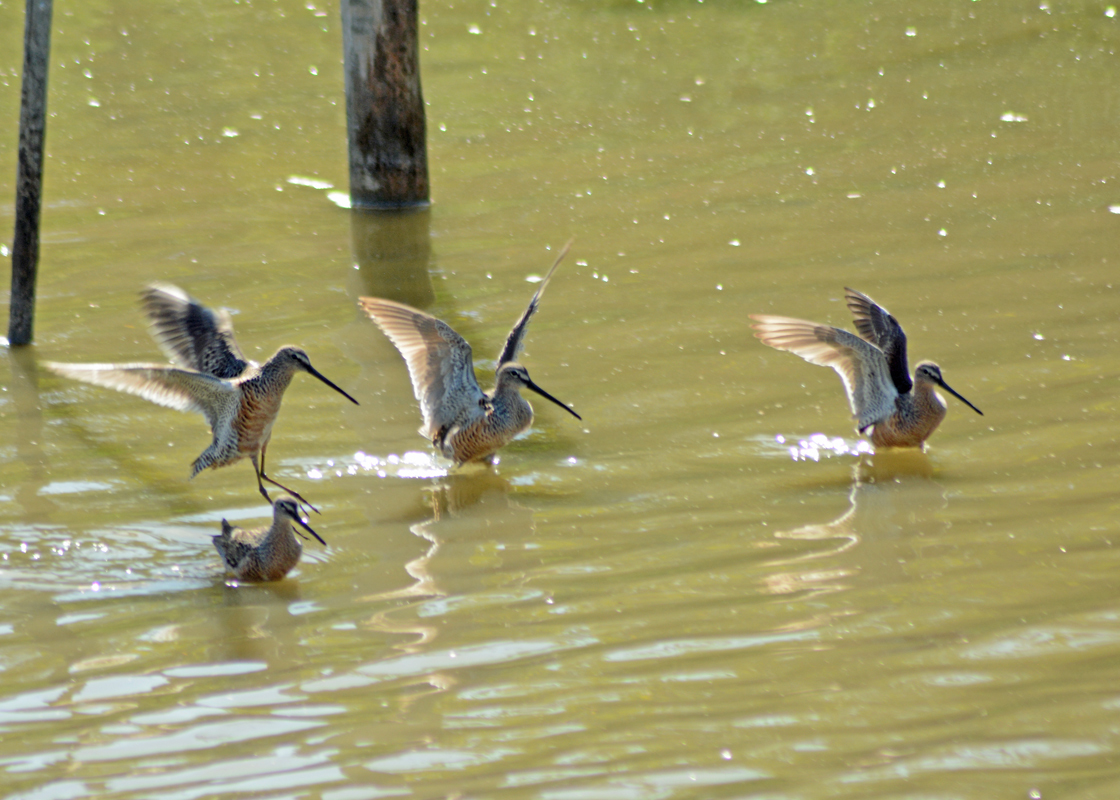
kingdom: Animalia
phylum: Chordata
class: Aves
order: Charadriiformes
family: Scolopacidae
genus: Limnodromus
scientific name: Limnodromus scolopaceus
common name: Long-billed dowitcher
